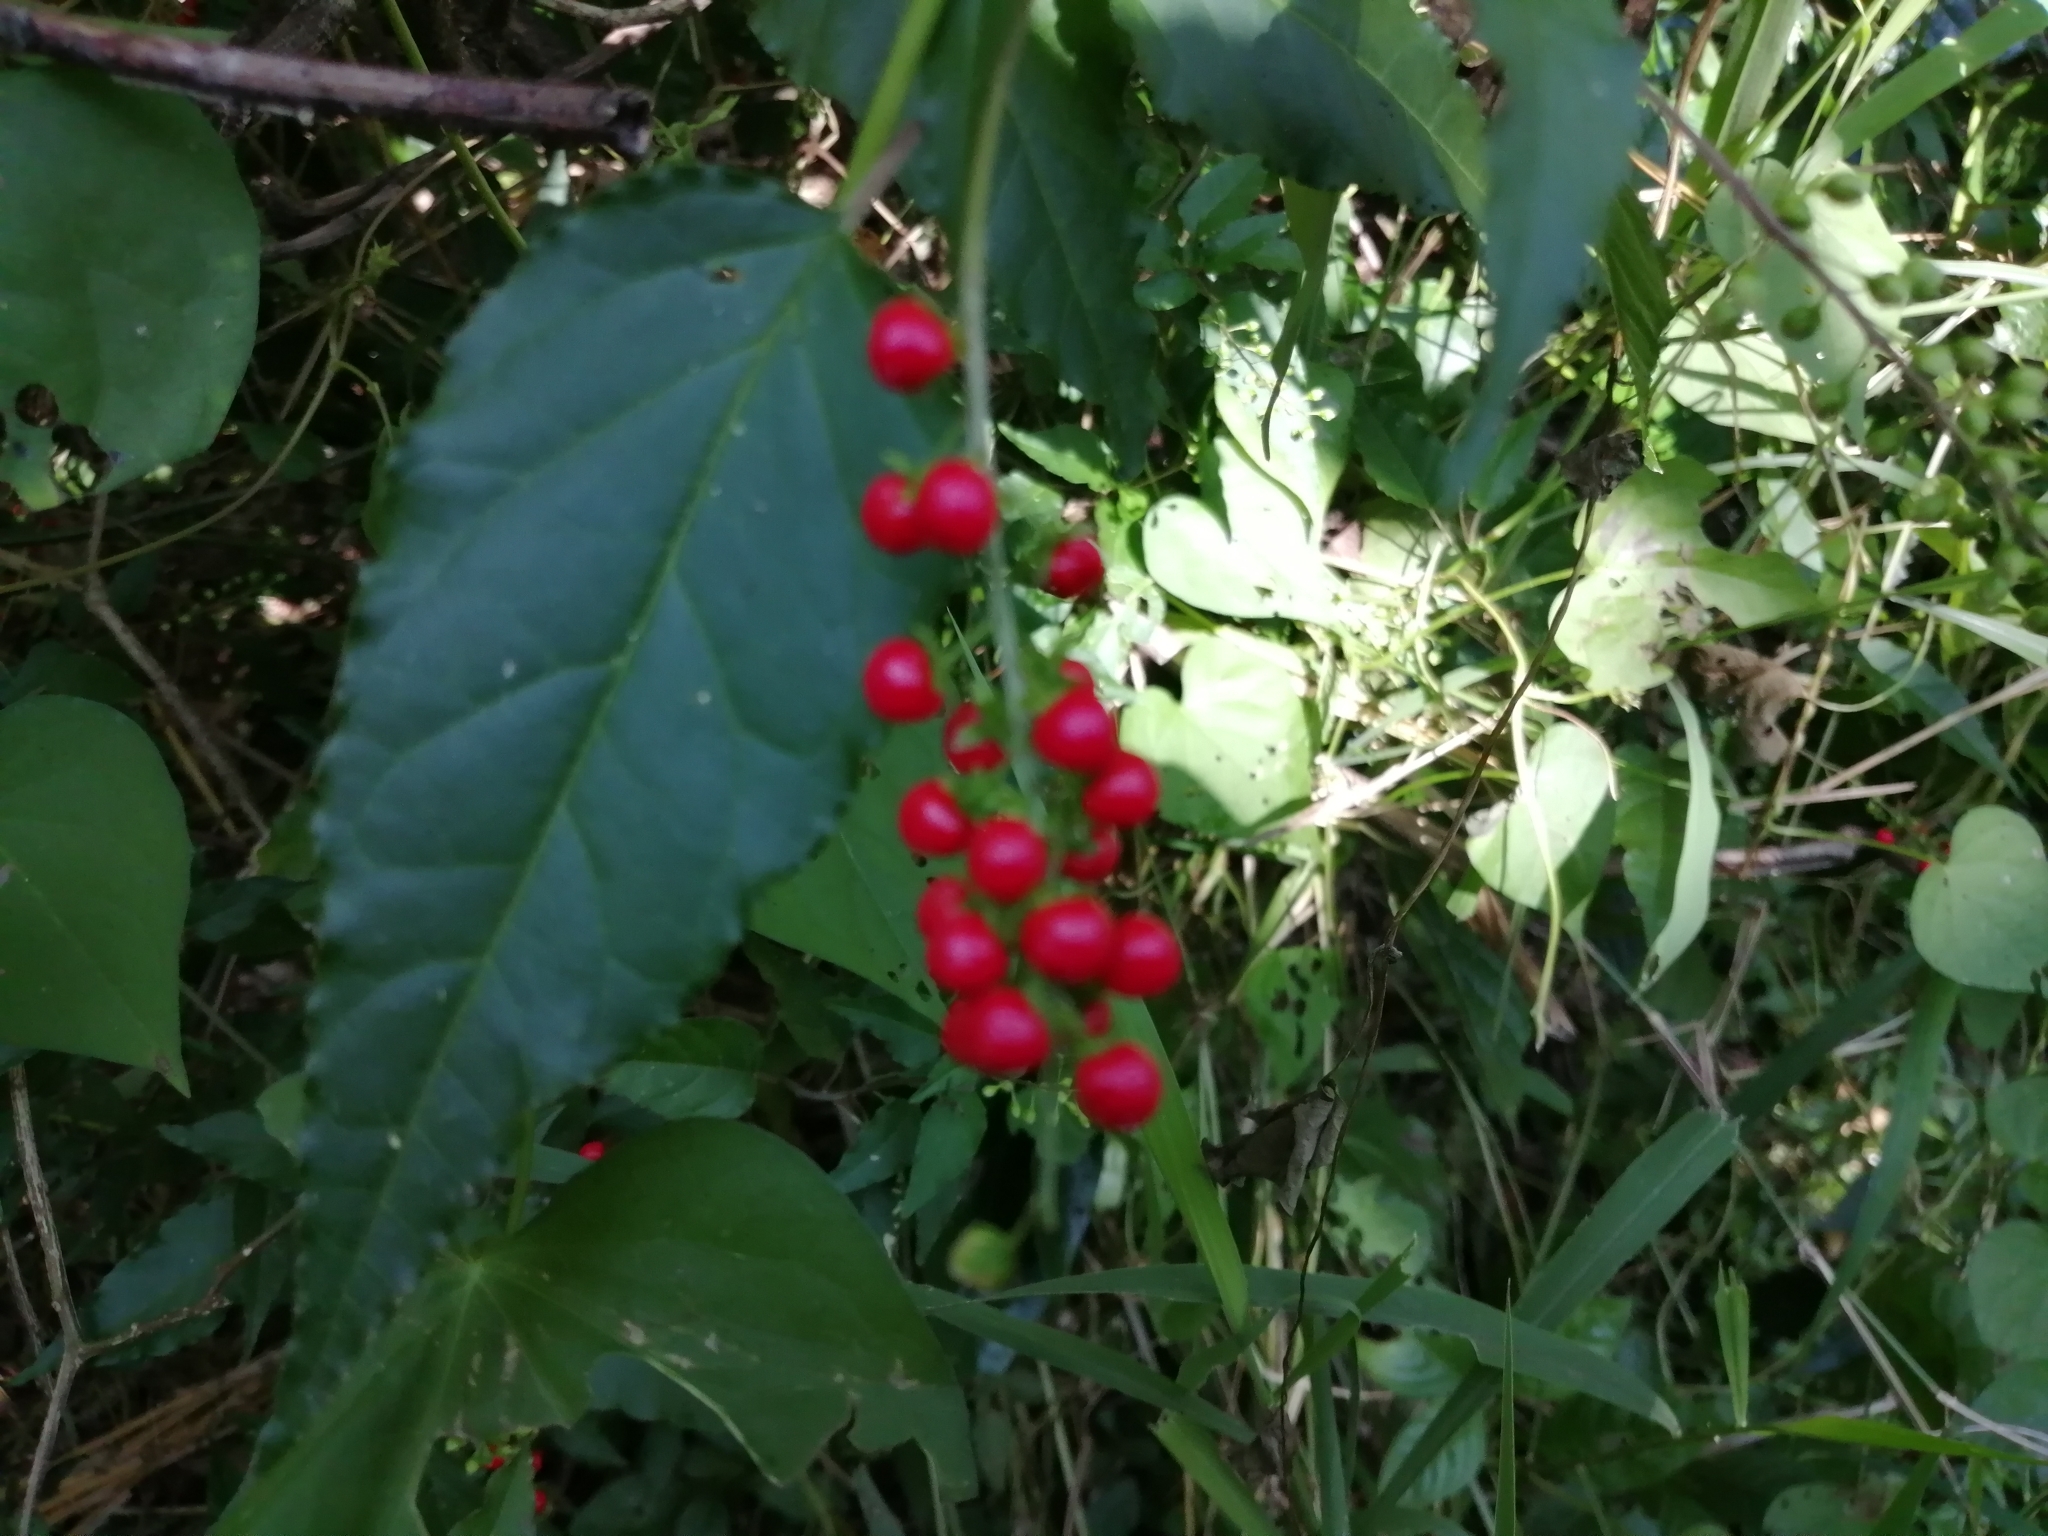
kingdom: Plantae
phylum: Tracheophyta
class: Magnoliopsida
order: Caryophyllales
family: Phytolaccaceae
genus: Rivina
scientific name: Rivina humilis
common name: Rougeplant
